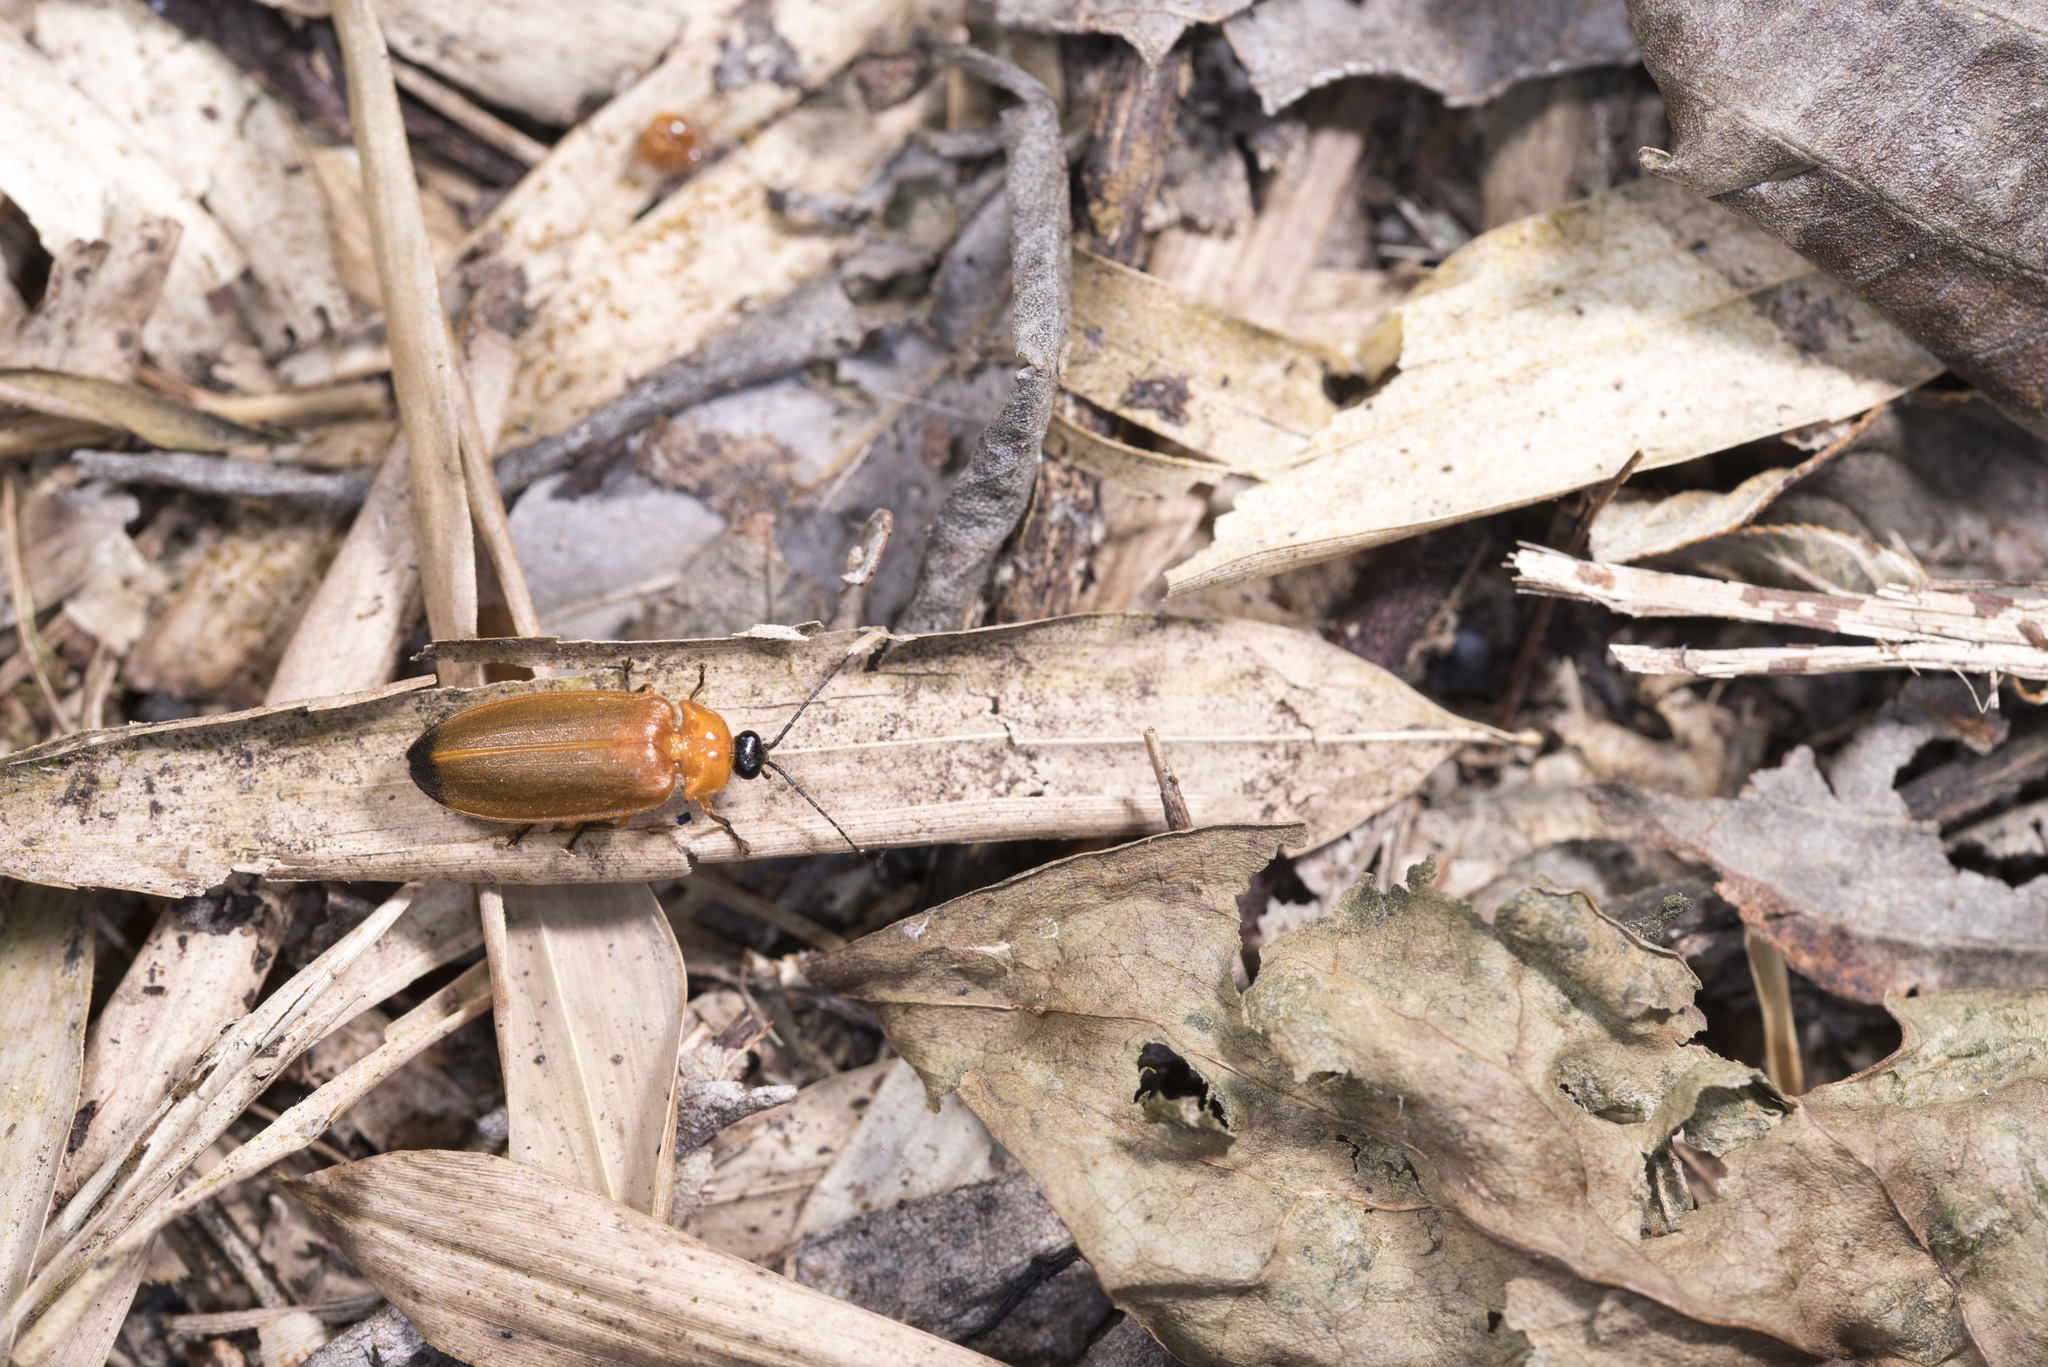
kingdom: Animalia
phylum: Arthropoda
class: Insecta
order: Coleoptera
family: Lampyridae
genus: Abscondita
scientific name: Abscondita anceyi
